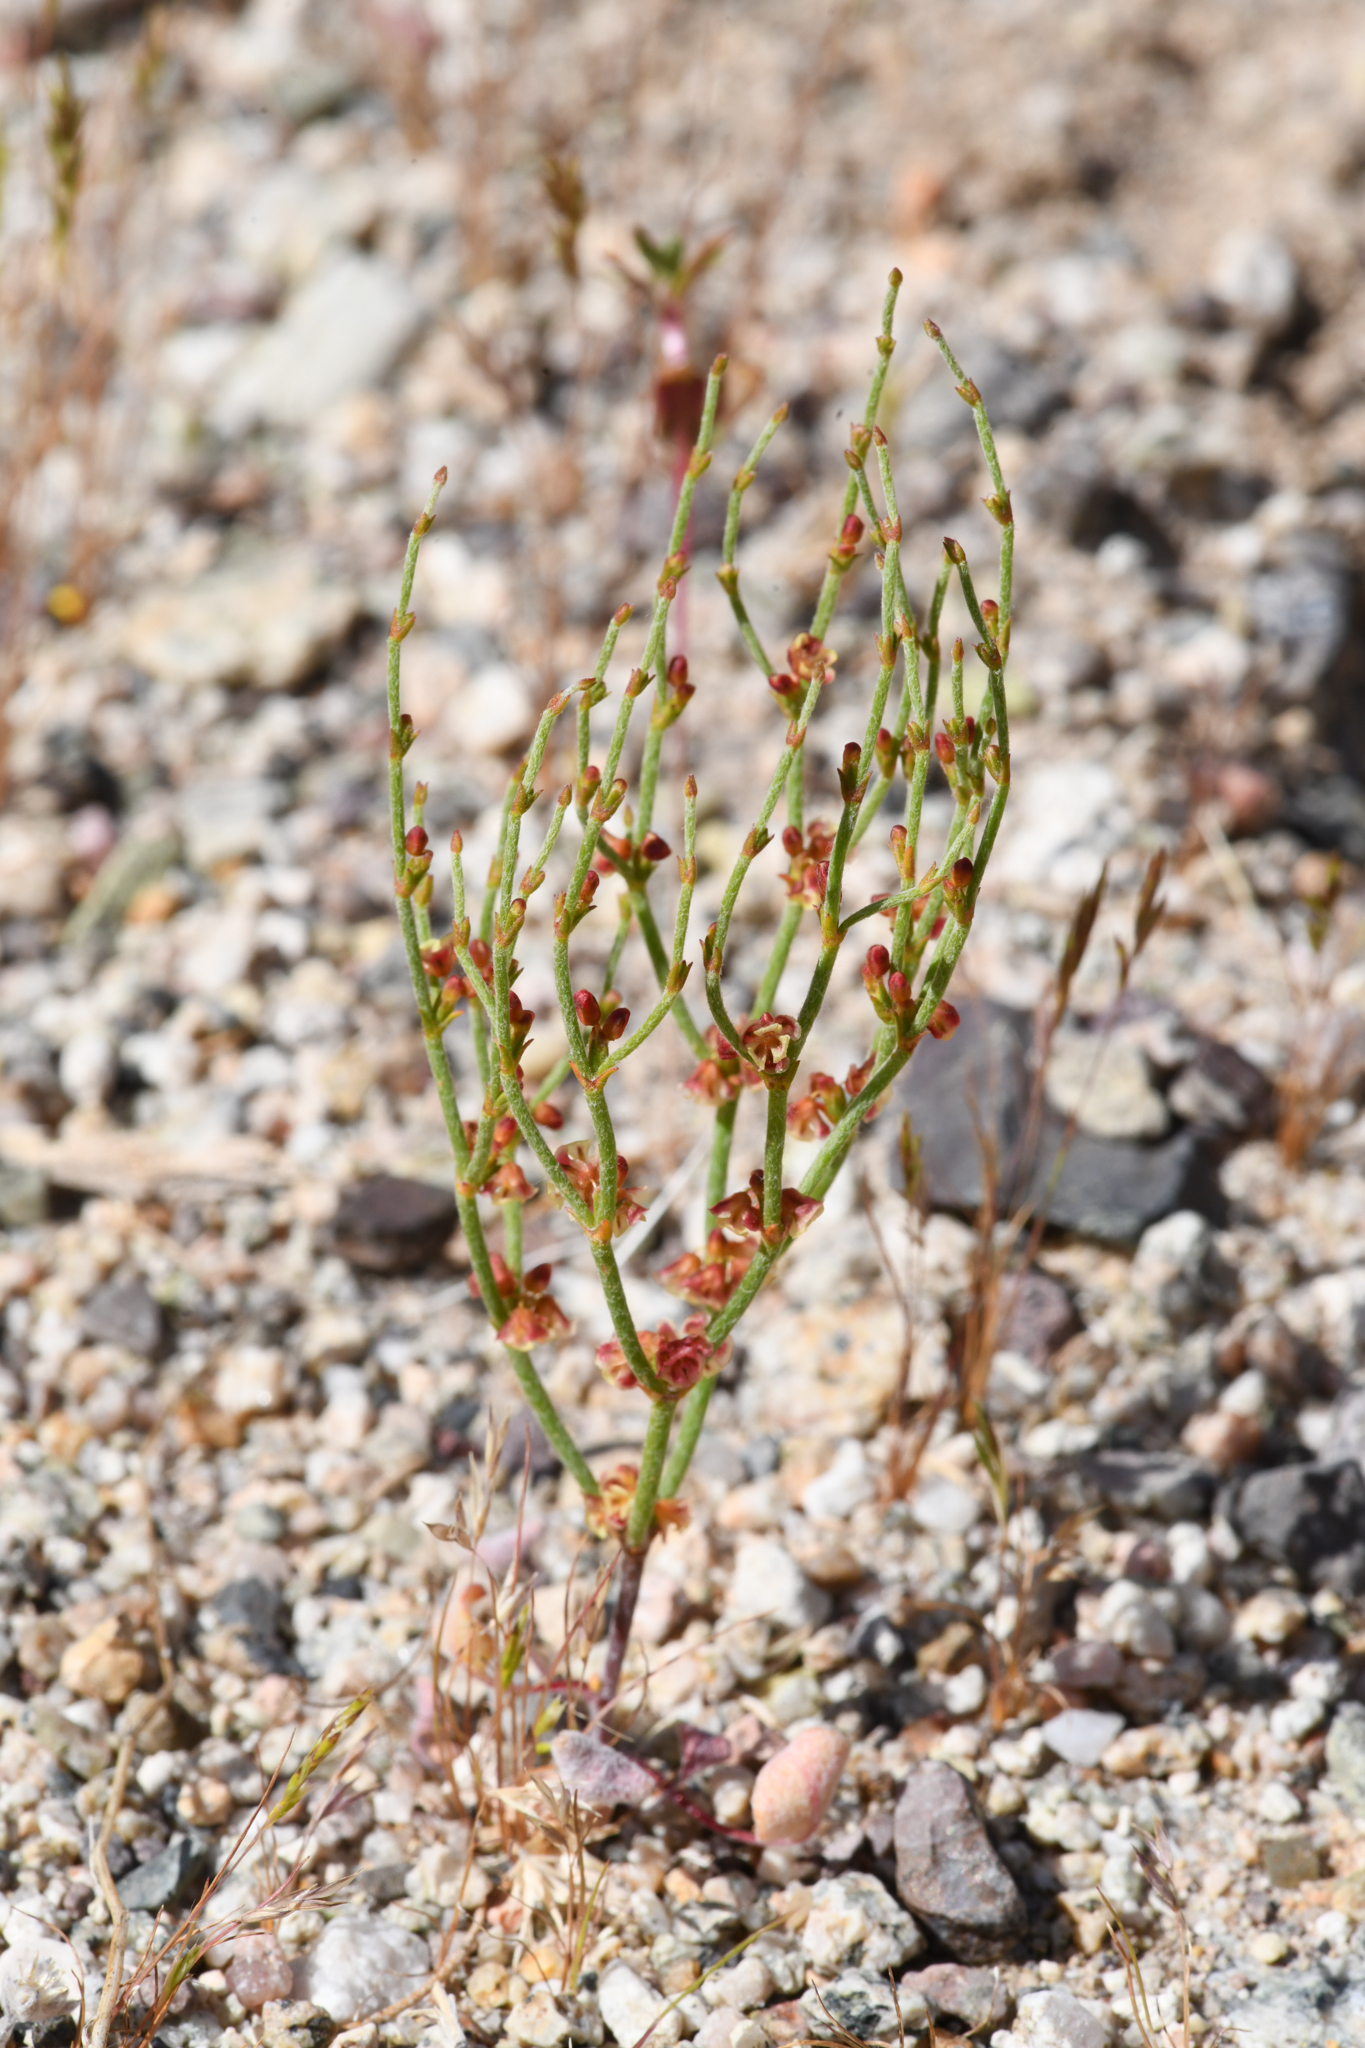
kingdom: Plantae
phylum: Tracheophyta
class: Magnoliopsida
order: Caryophyllales
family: Polygonaceae
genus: Eriogonum
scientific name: Eriogonum nidularium
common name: Bird's-nest wild buckwheat
